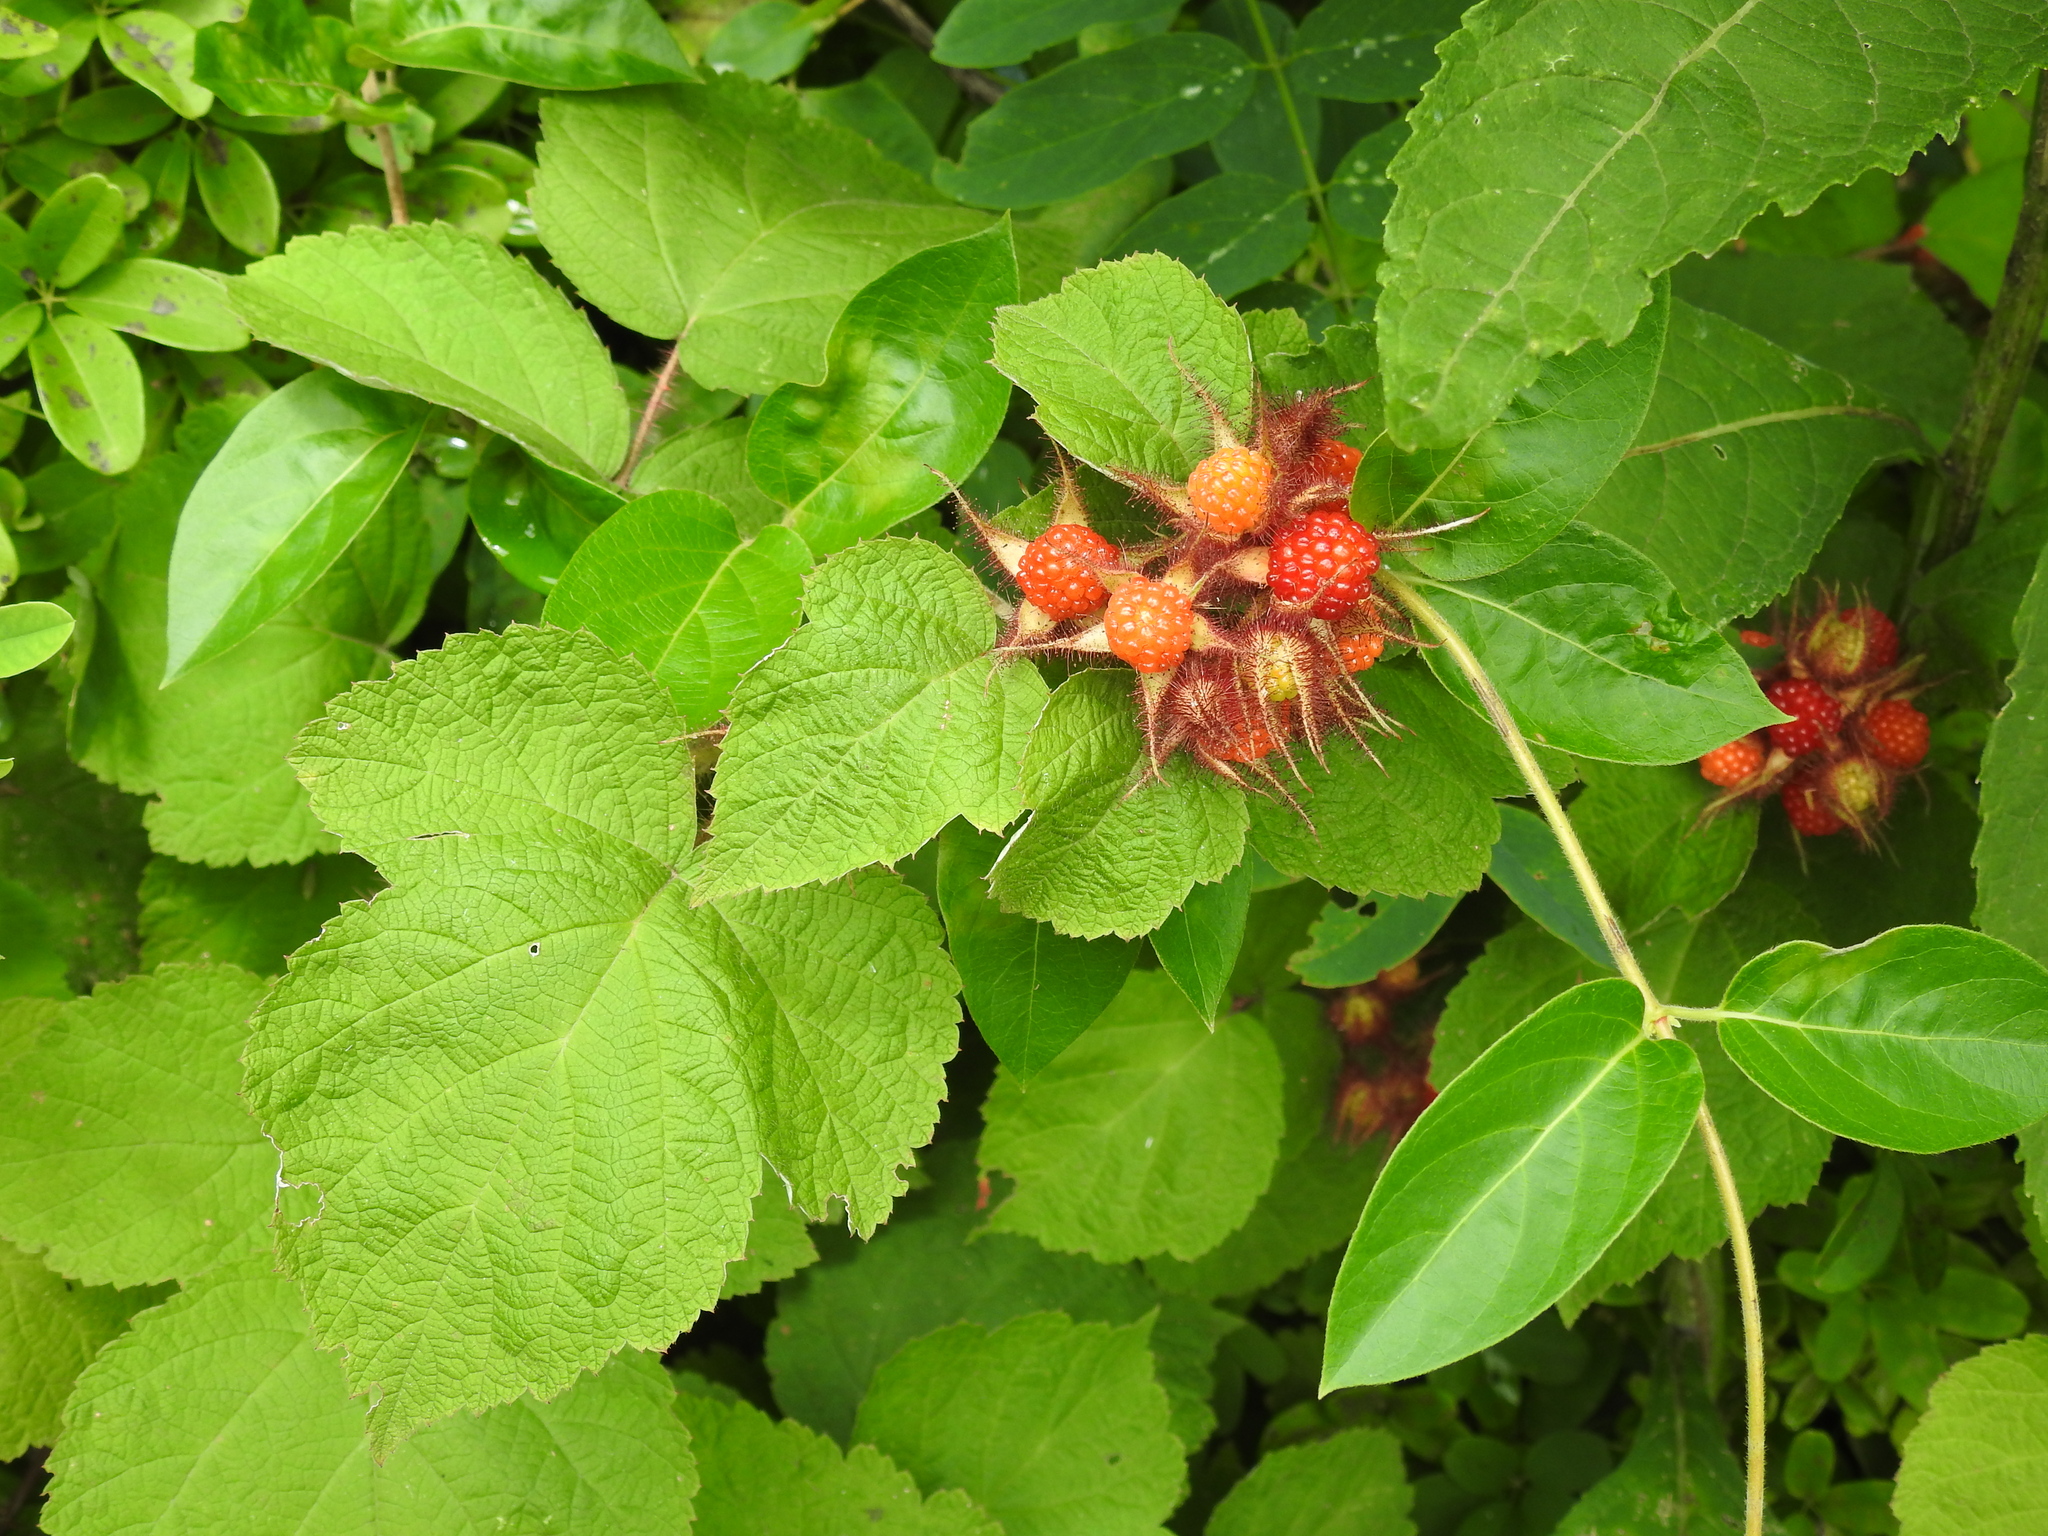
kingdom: Plantae
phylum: Tracheophyta
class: Magnoliopsida
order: Rosales
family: Rosaceae
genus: Rubus
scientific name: Rubus phoenicolasius
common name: Japanese wineberry
